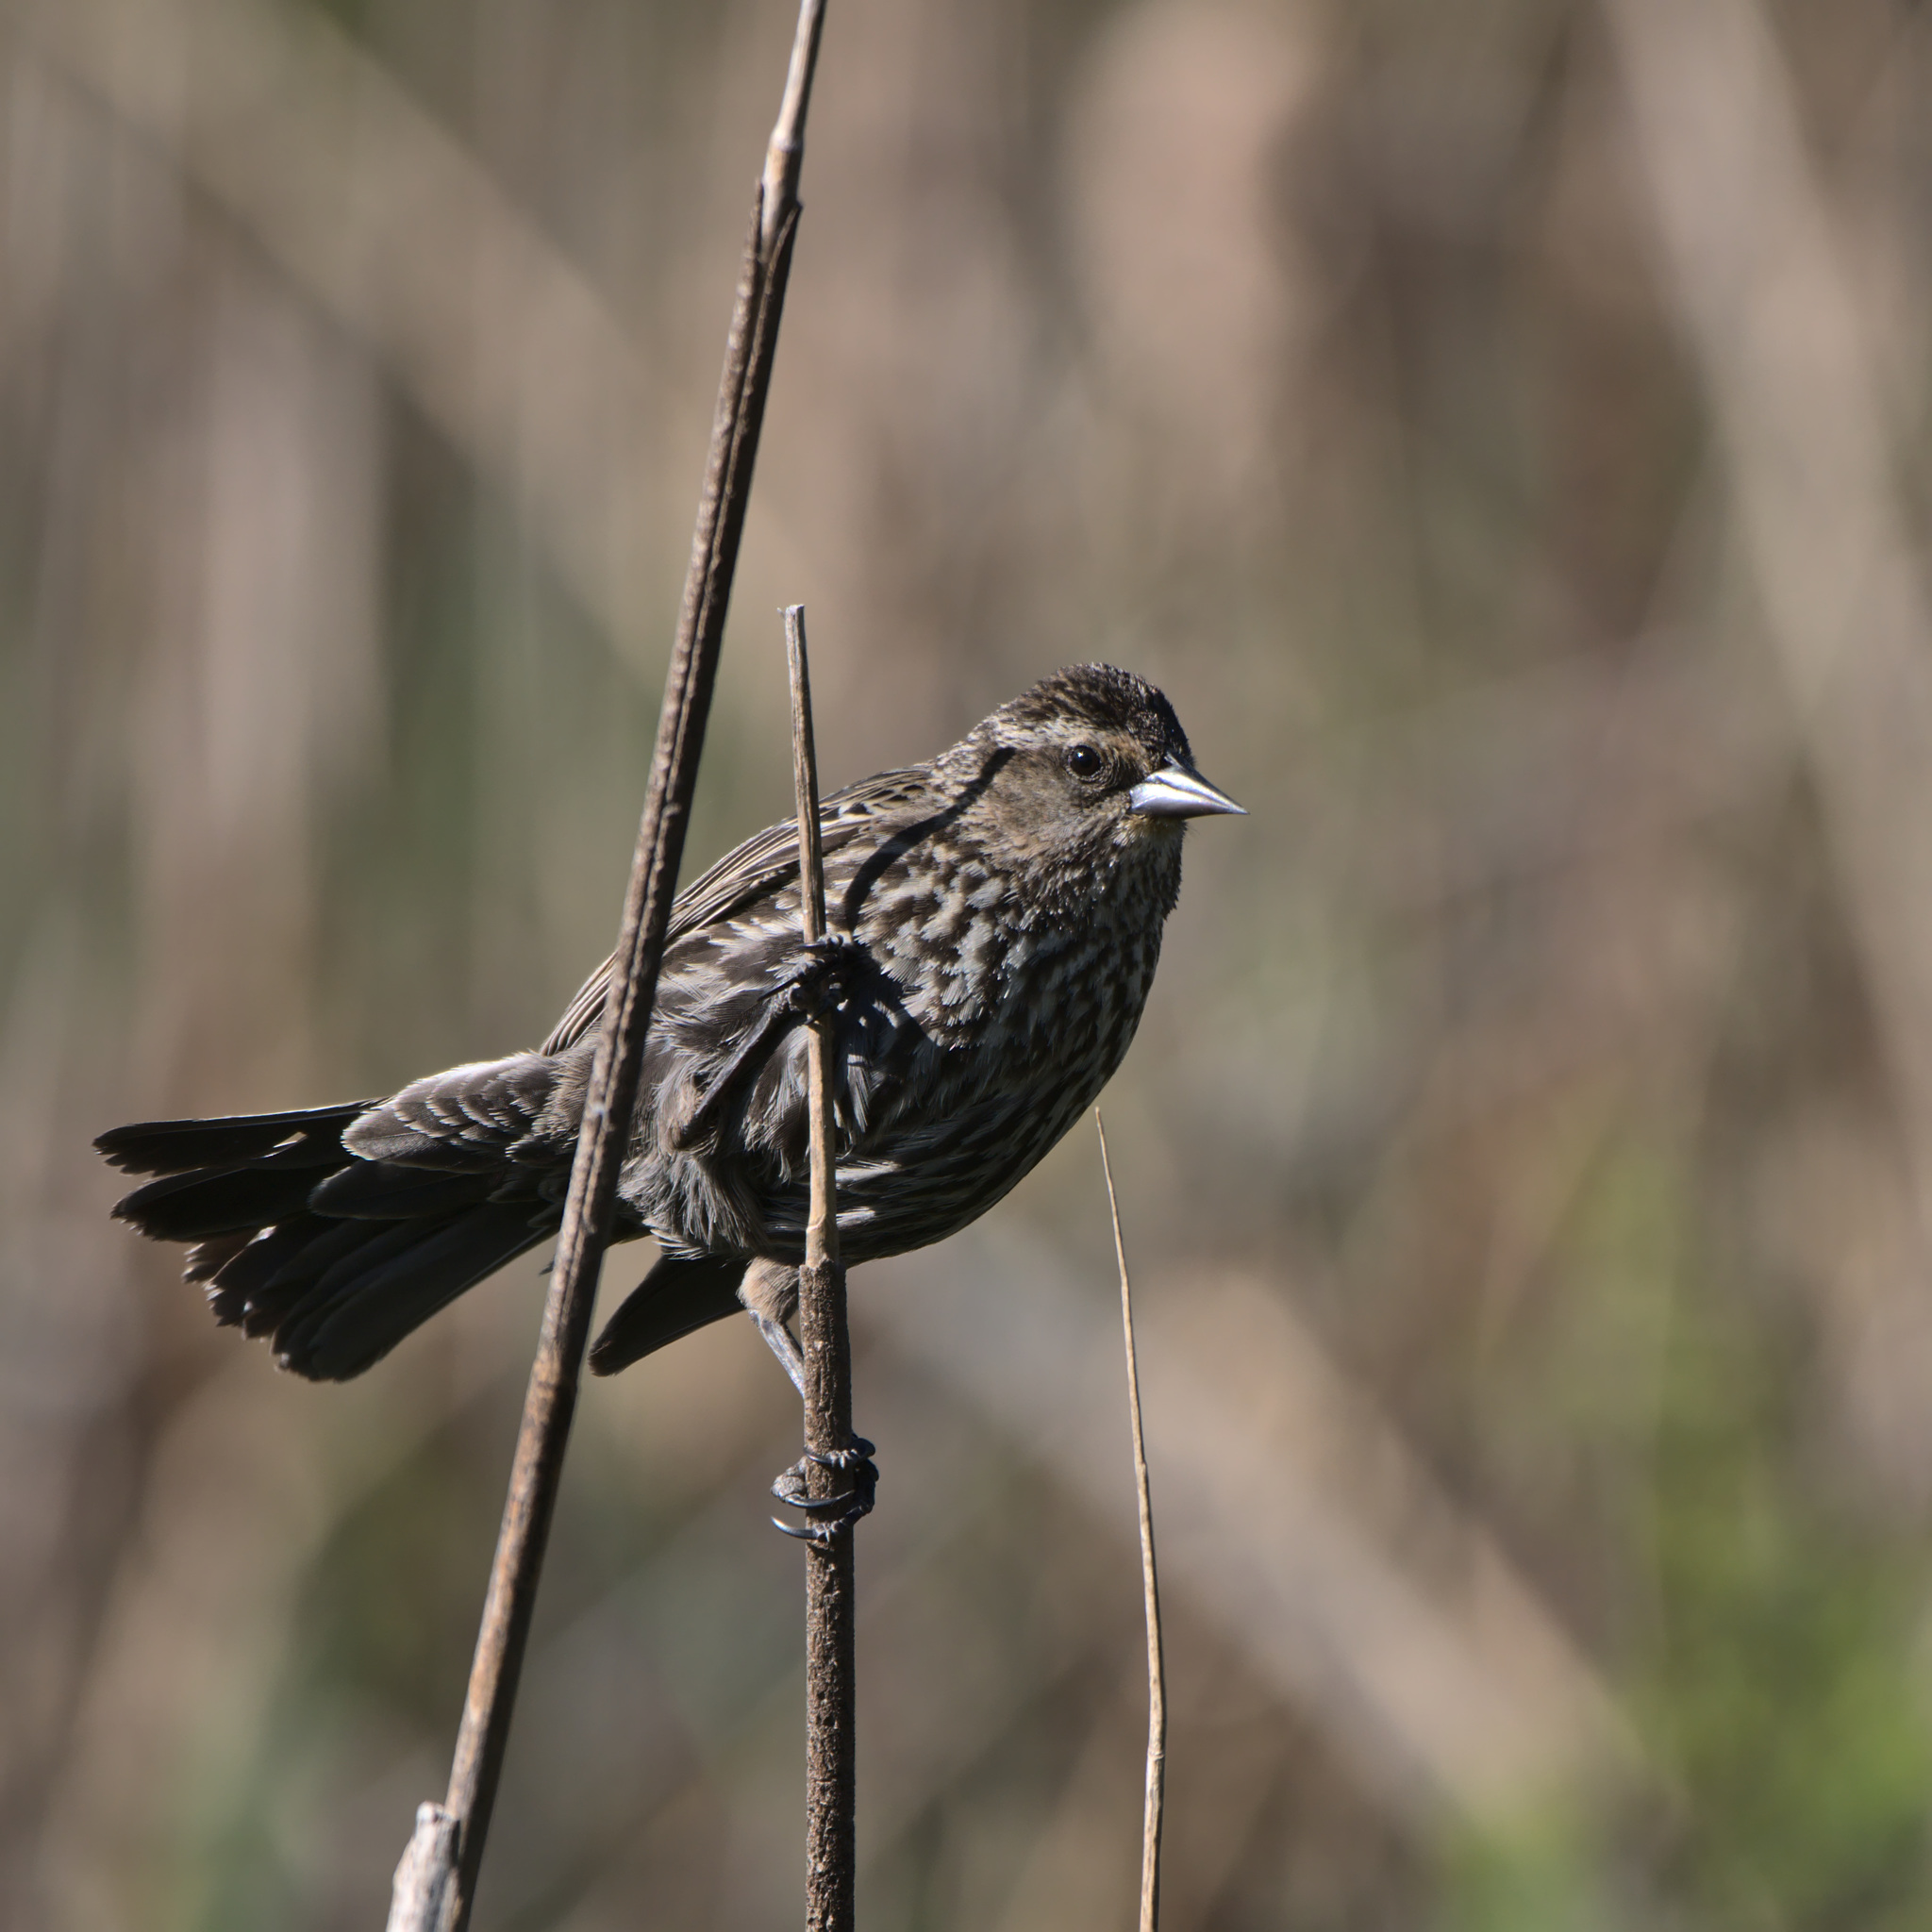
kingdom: Animalia
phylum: Chordata
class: Aves
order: Passeriformes
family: Icteridae
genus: Agelaius
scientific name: Agelaius phoeniceus
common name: Red-winged blackbird
